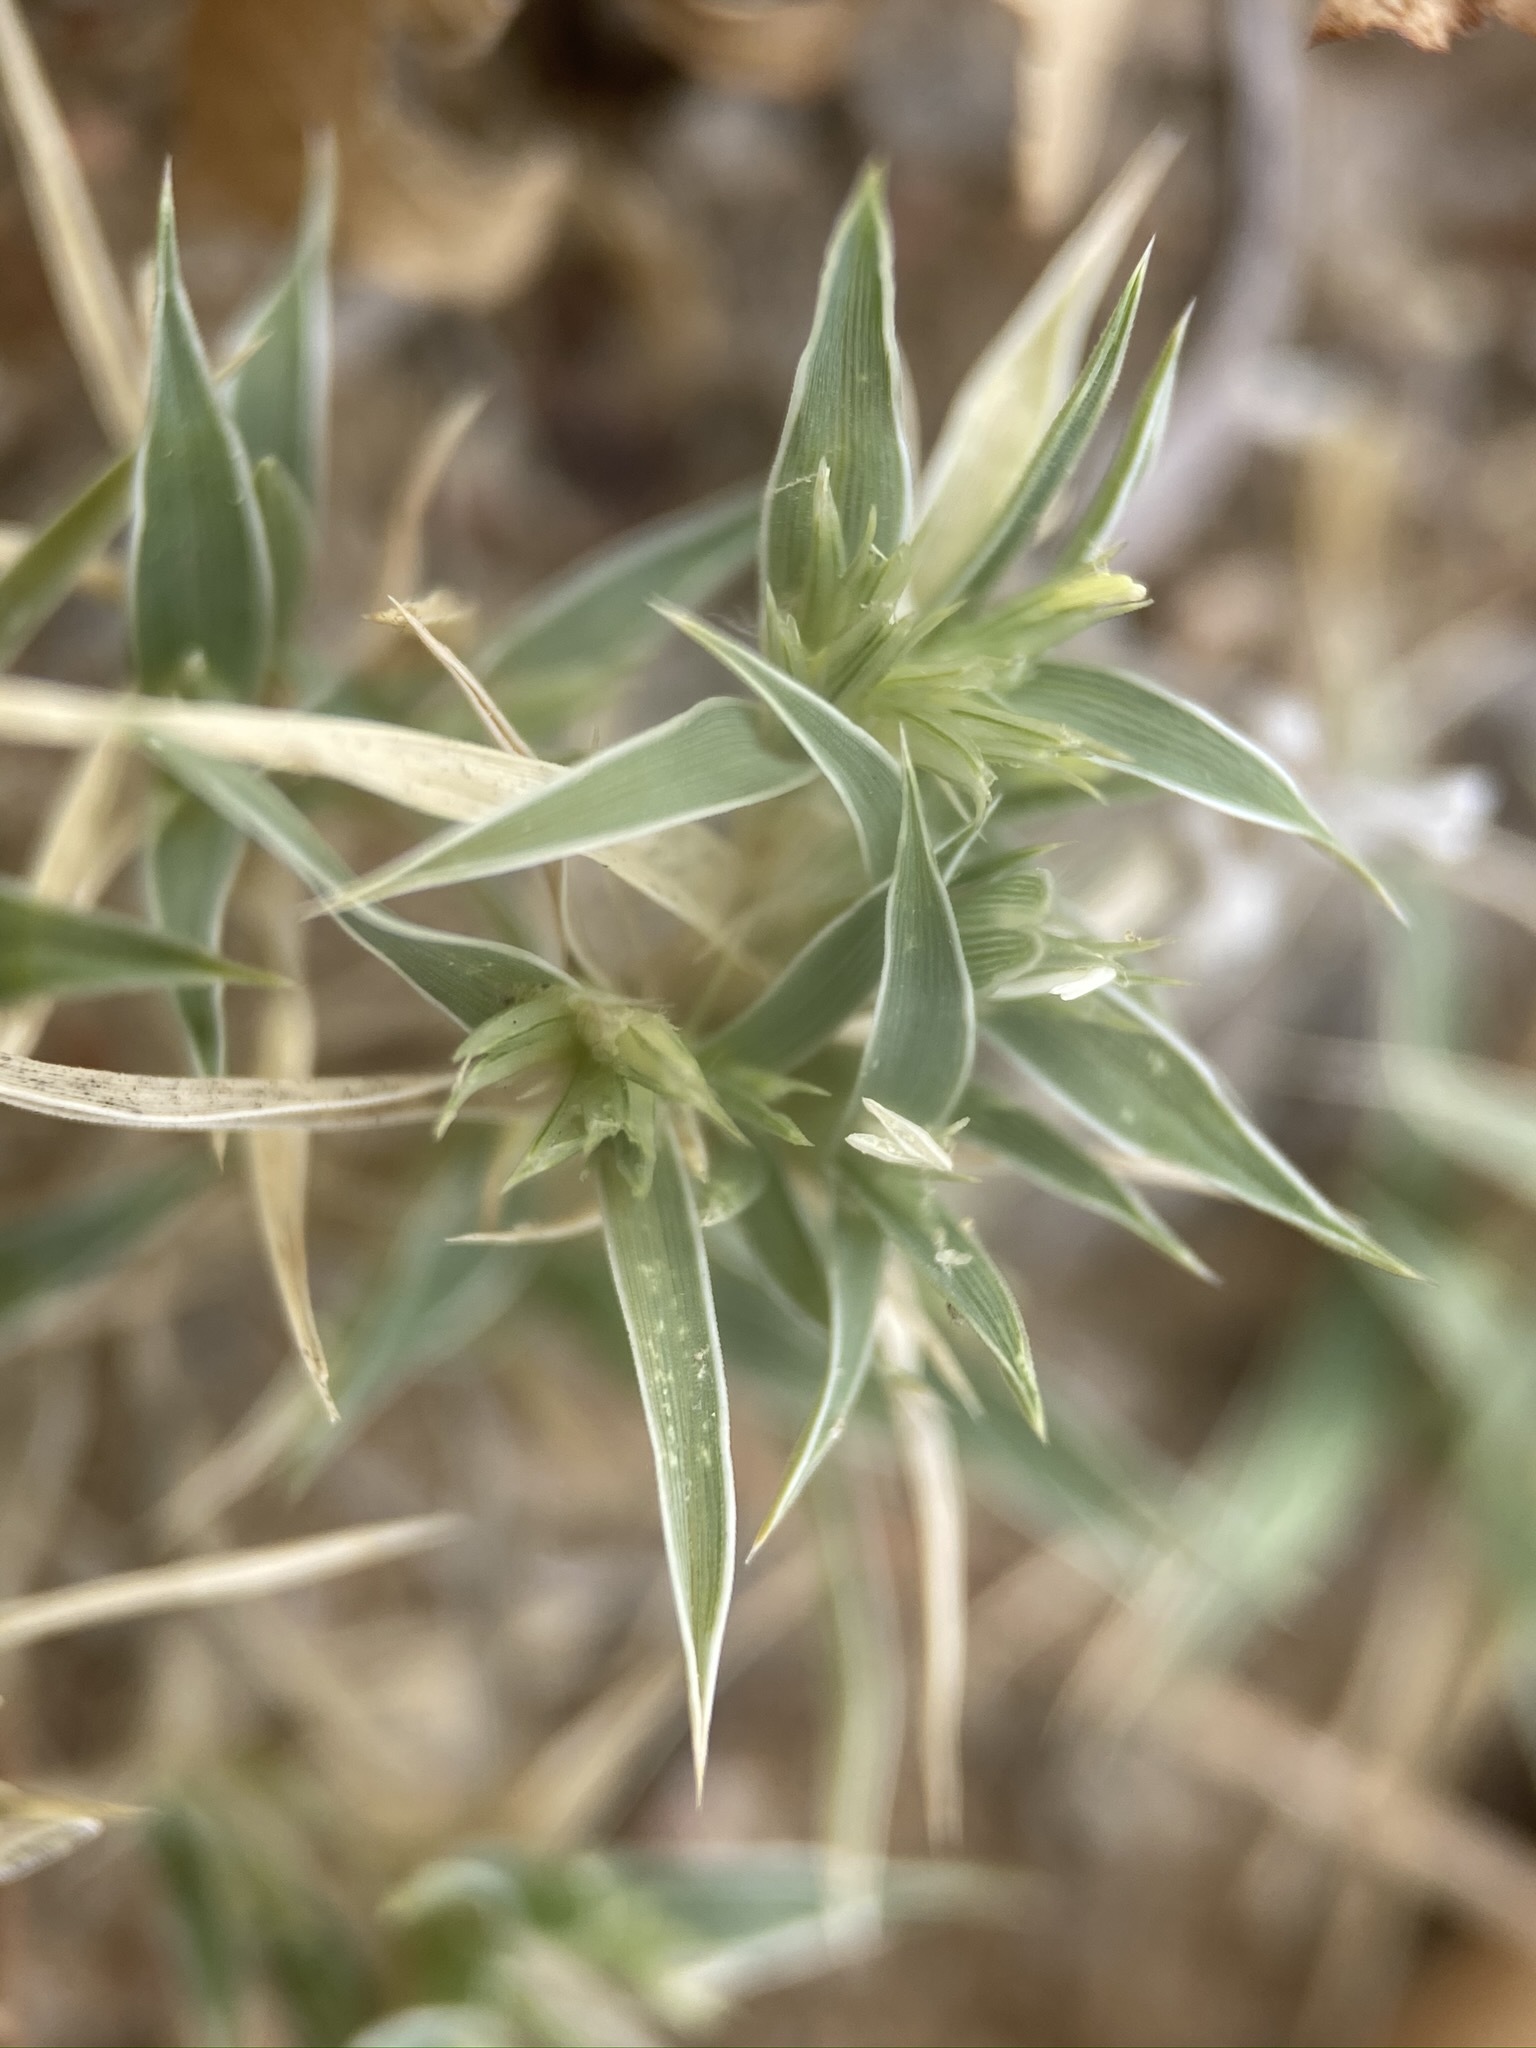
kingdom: Plantae
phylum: Tracheophyta
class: Liliopsida
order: Poales
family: Poaceae
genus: Munroa
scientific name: Munroa squarrosa
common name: False buffalo grass
